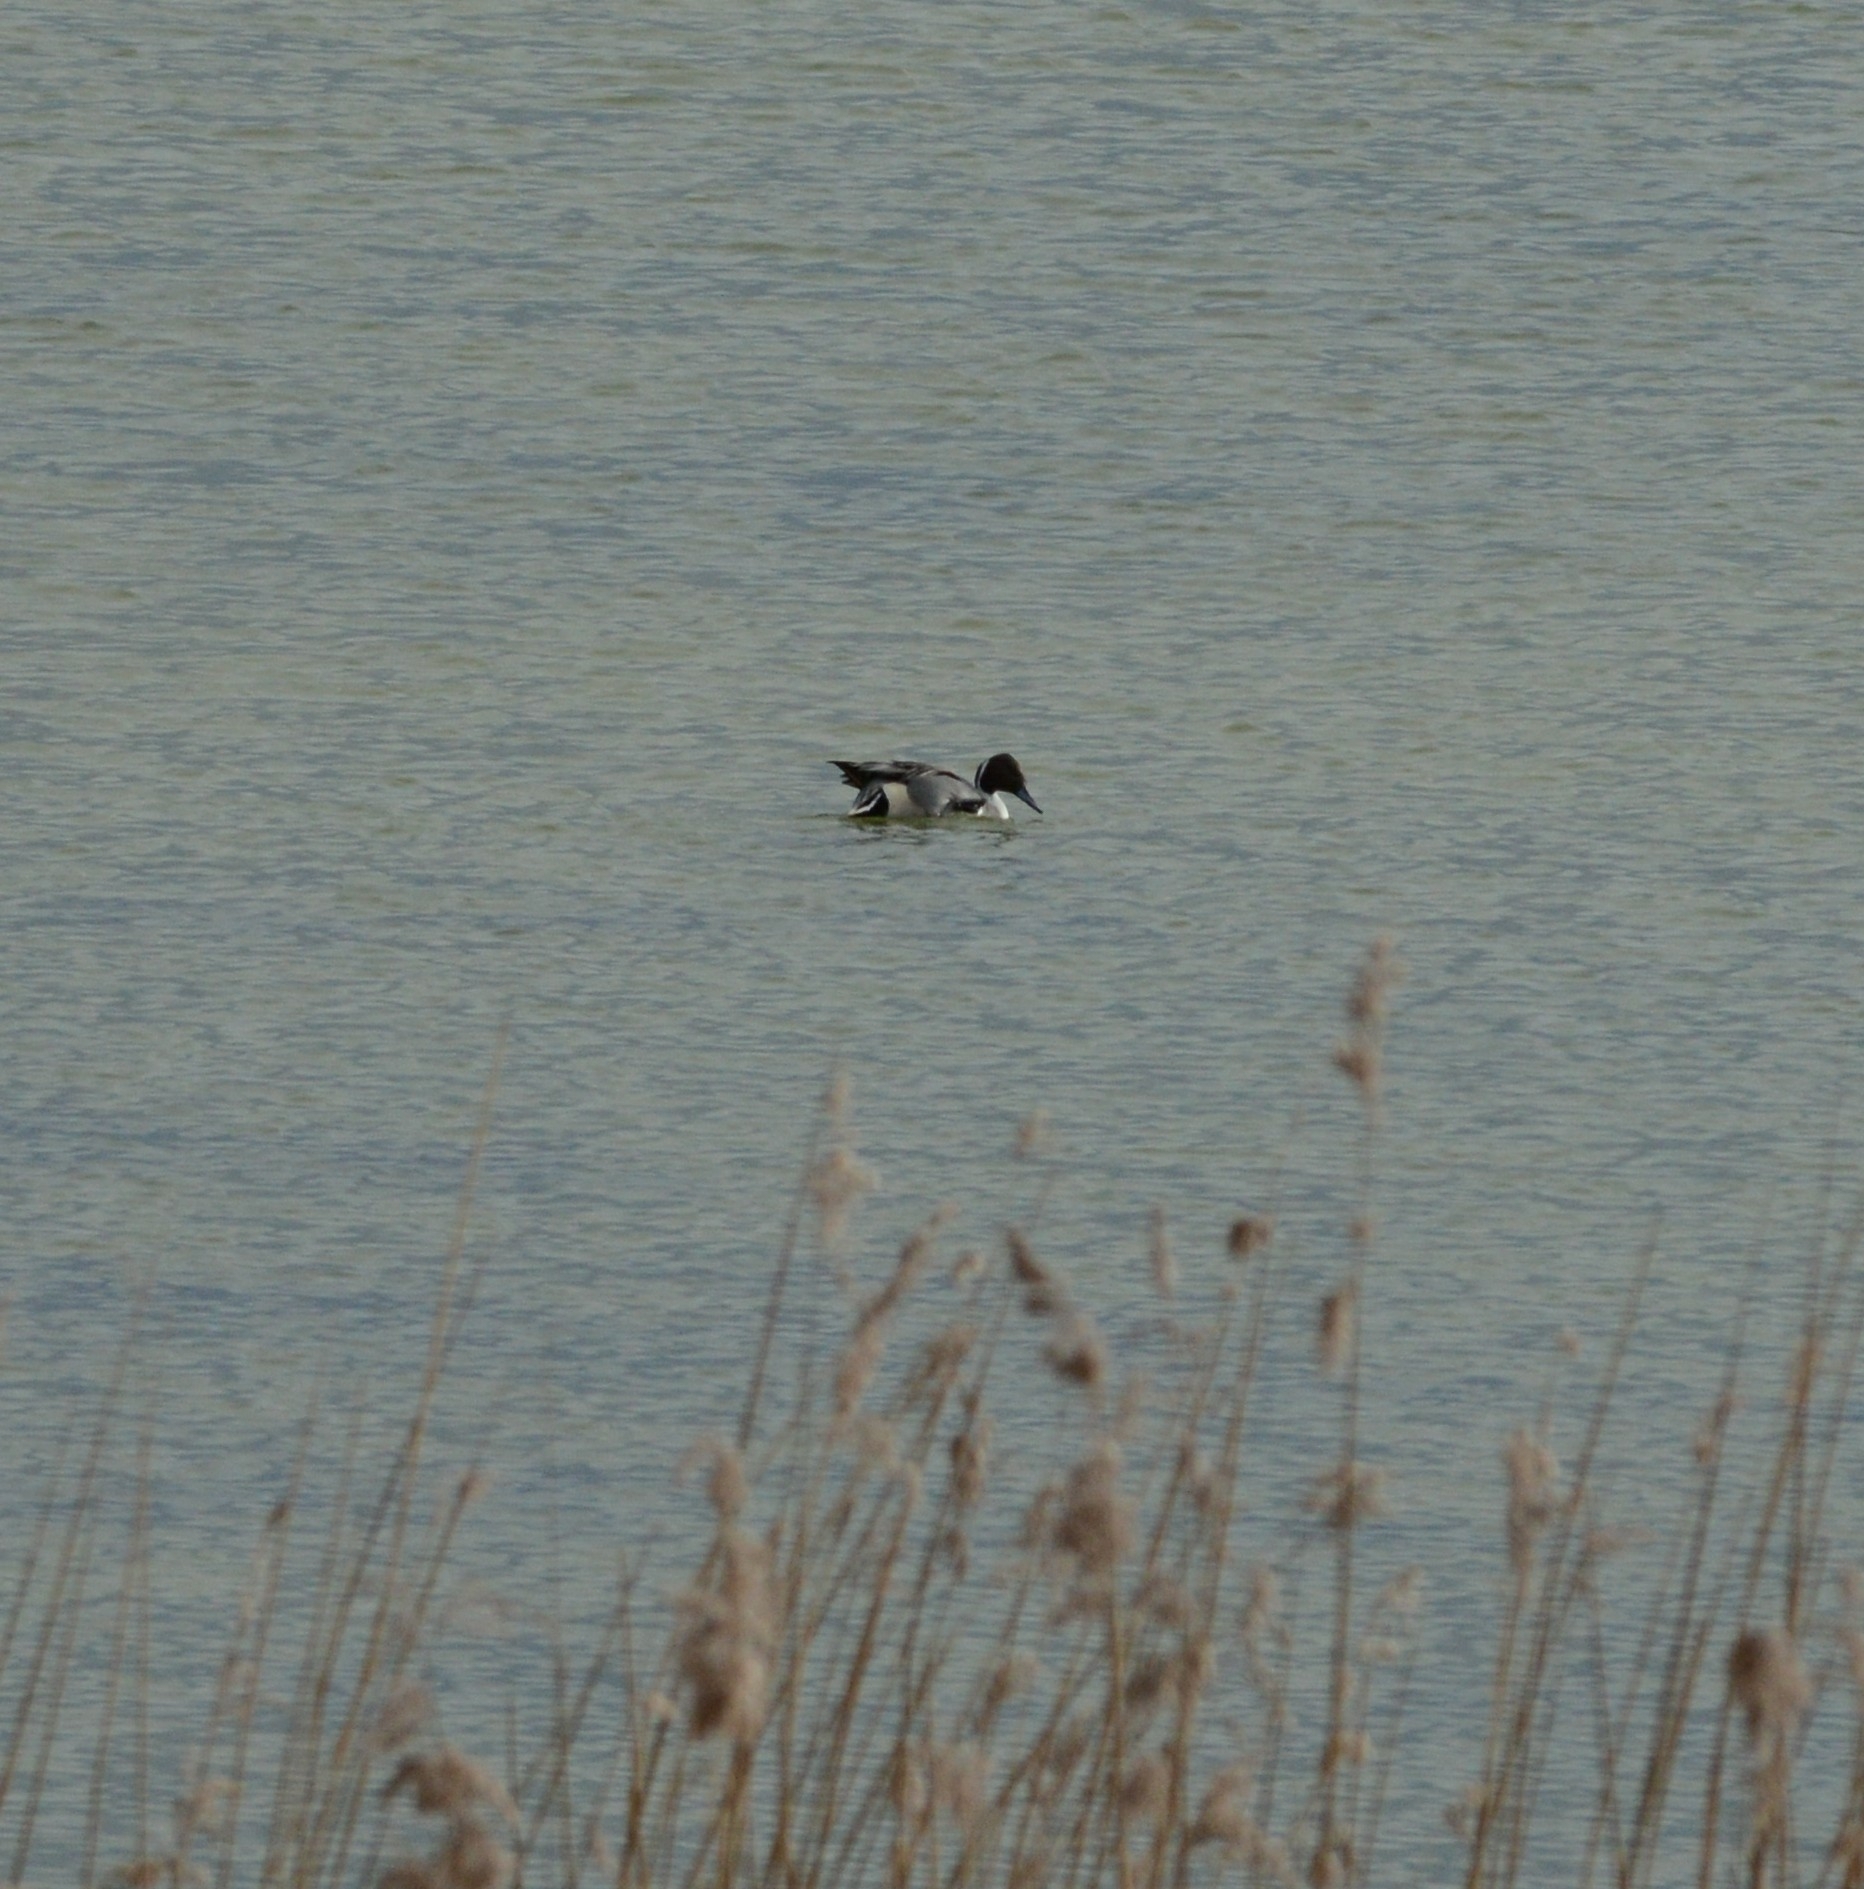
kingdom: Animalia
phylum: Chordata
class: Aves
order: Anseriformes
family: Anatidae
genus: Anas
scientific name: Anas acuta
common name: Northern pintail
